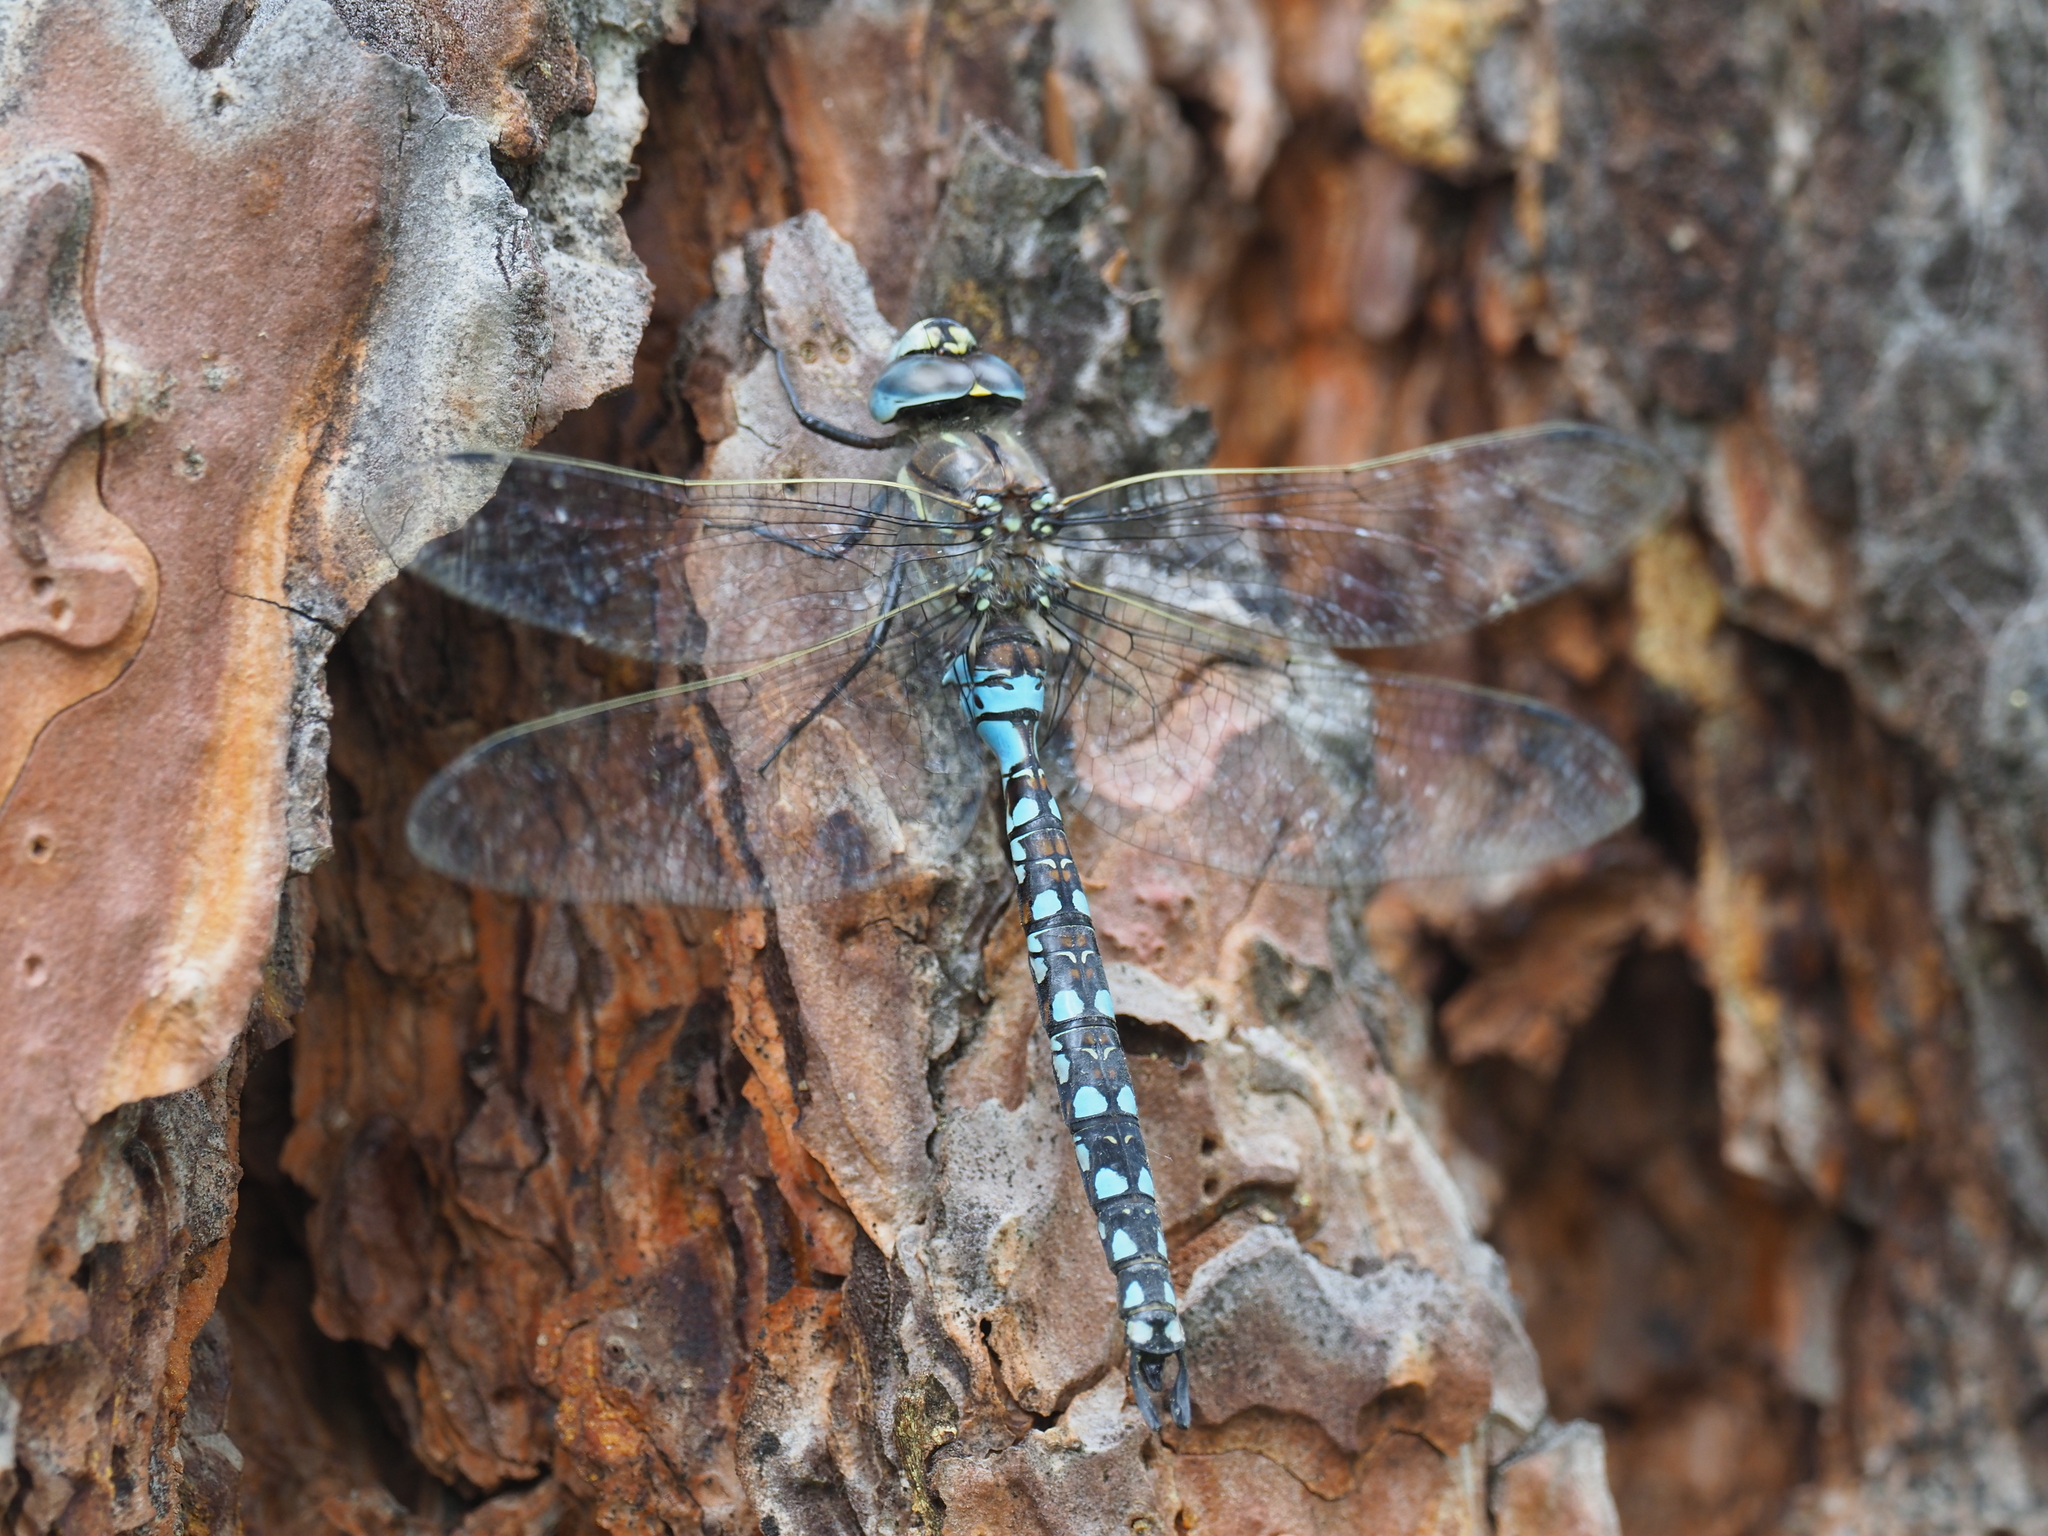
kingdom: Animalia
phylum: Arthropoda
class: Insecta
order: Odonata
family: Aeshnidae
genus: Rhionaeschna
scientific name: Rhionaeschna californica
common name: California darner
